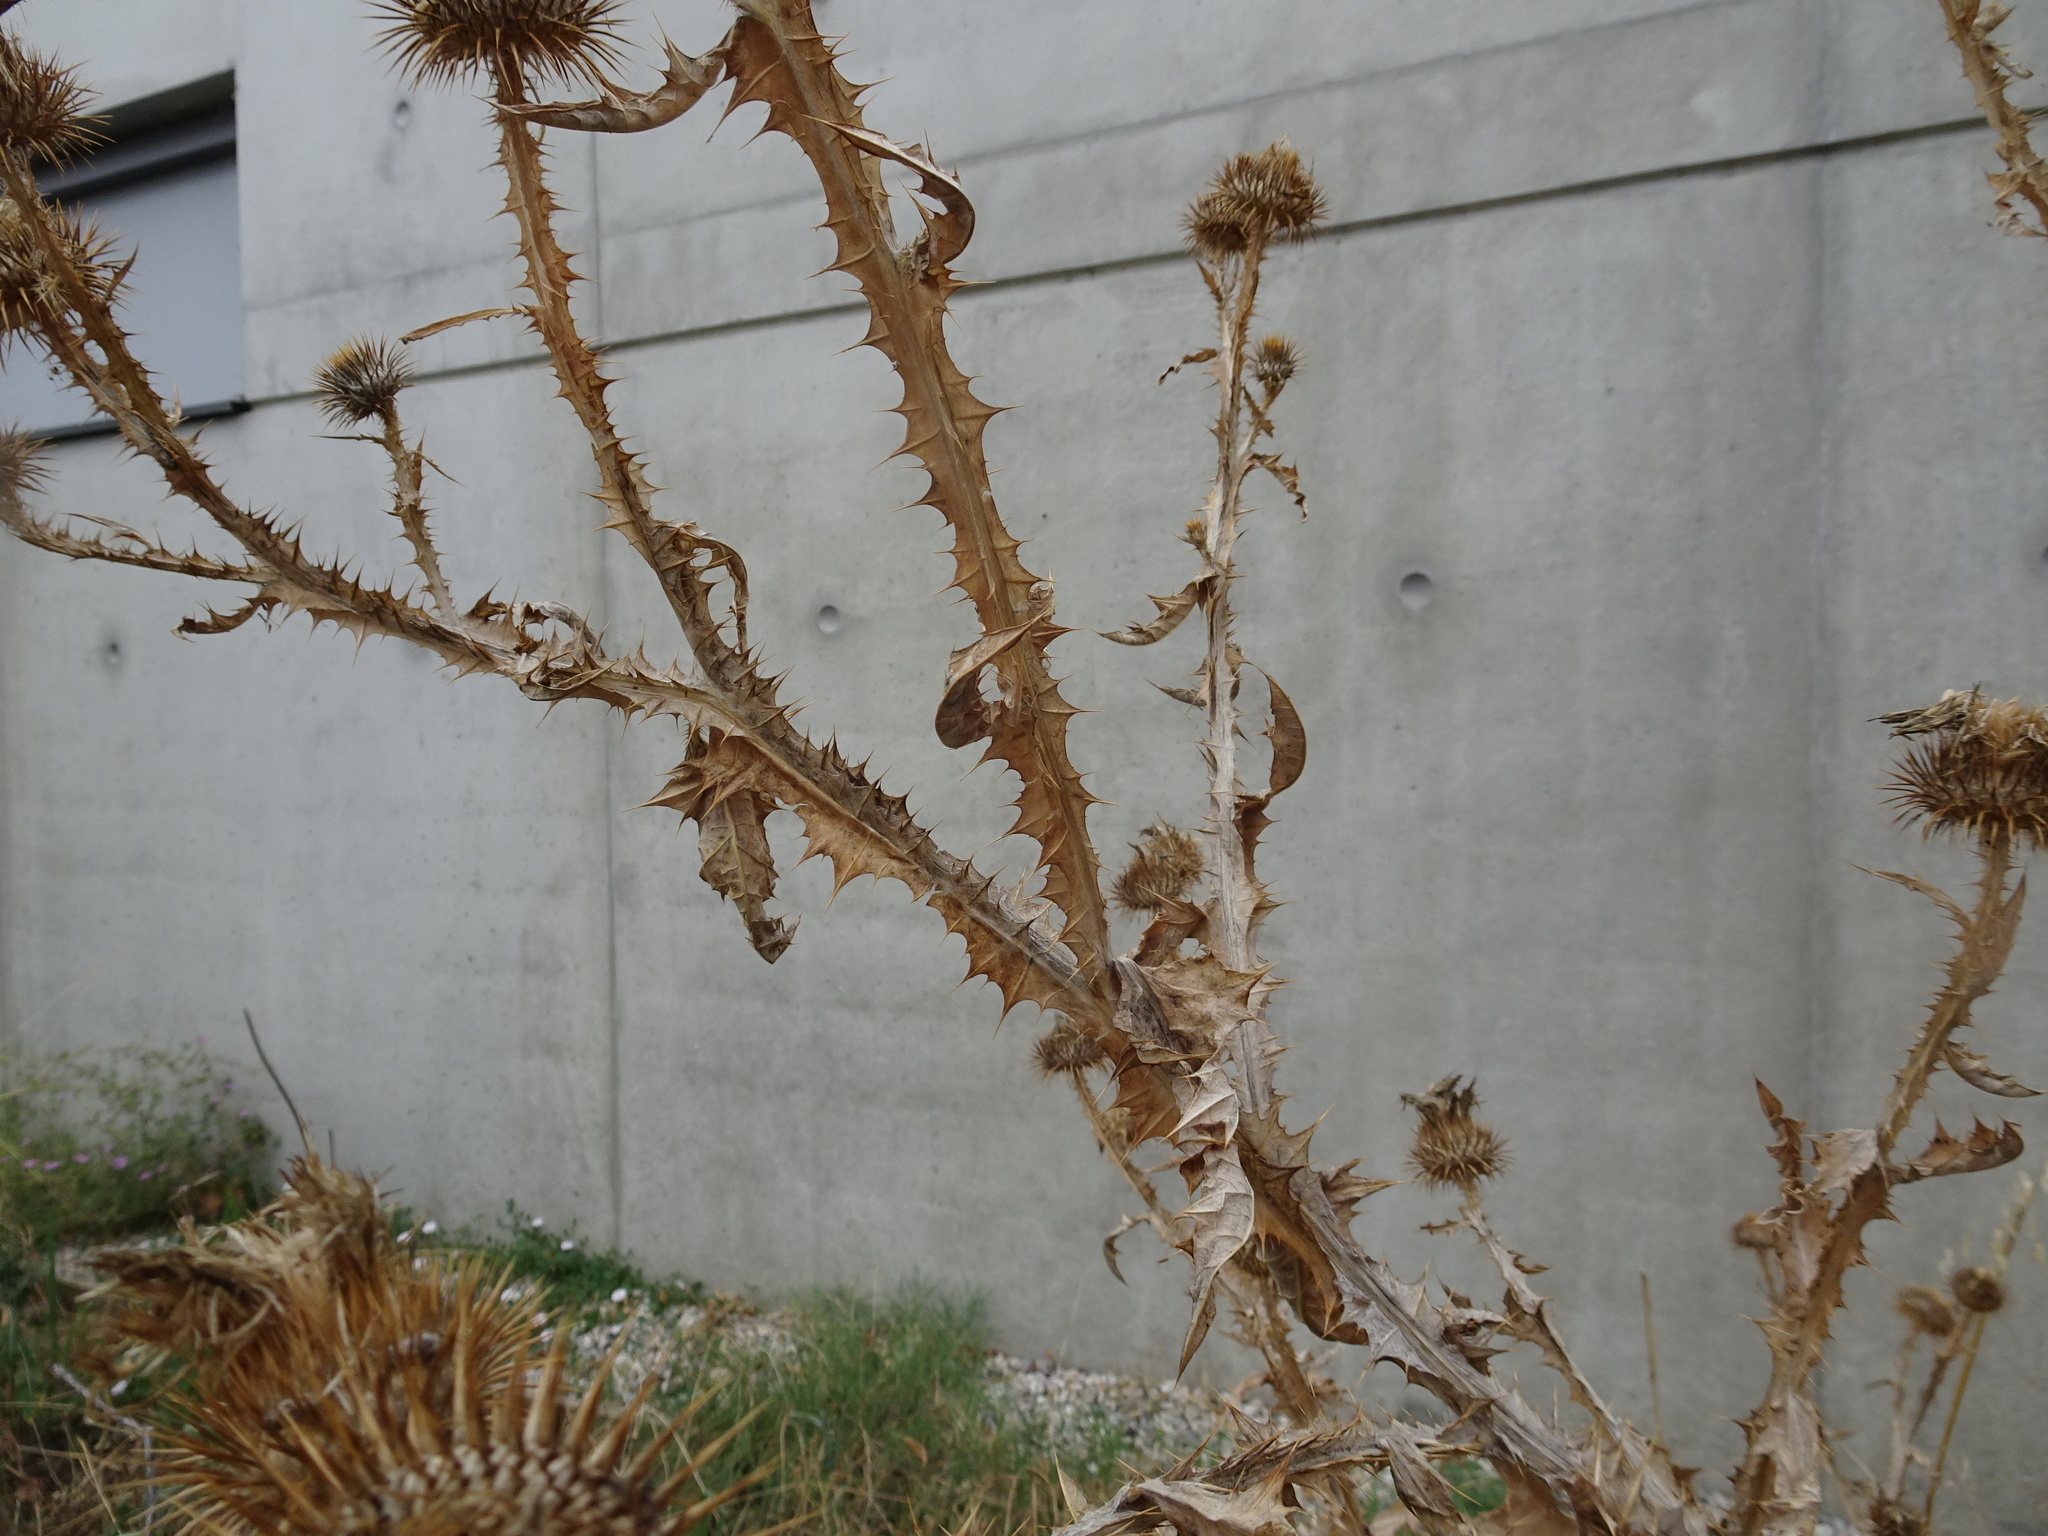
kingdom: Plantae
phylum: Tracheophyta
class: Magnoliopsida
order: Asterales
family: Asteraceae
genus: Onopordum
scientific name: Onopordum acanthium
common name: Scotch thistle
